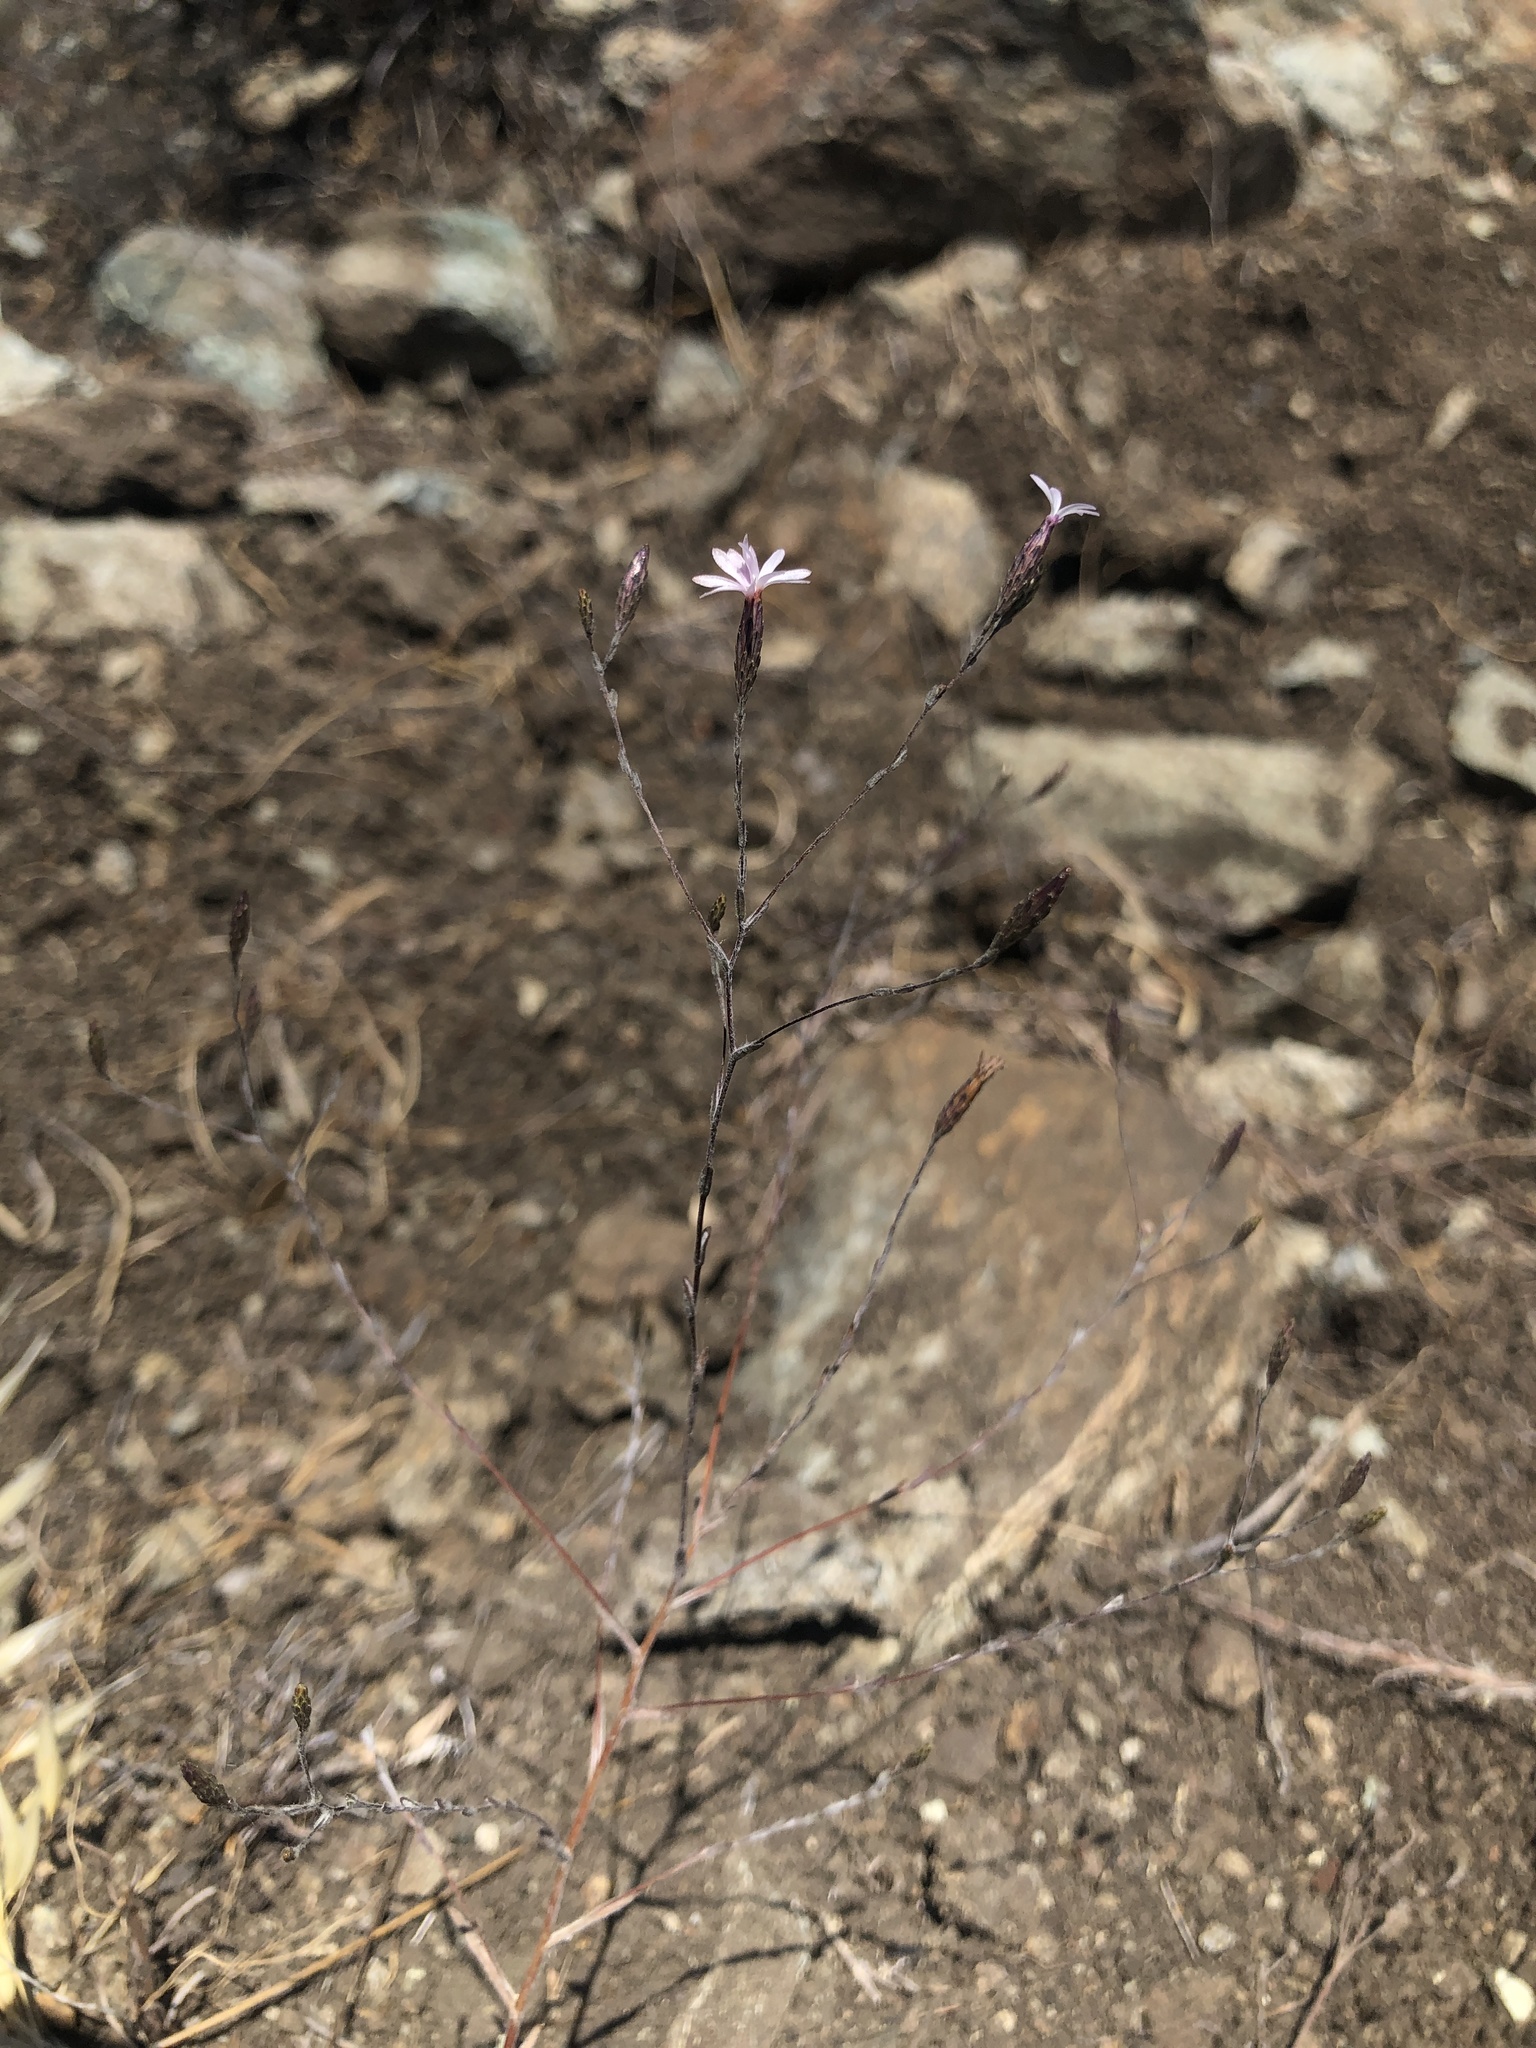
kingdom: Plantae
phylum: Tracheophyta
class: Magnoliopsida
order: Asterales
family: Asteraceae
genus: Lessingia
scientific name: Lessingia micradenia
